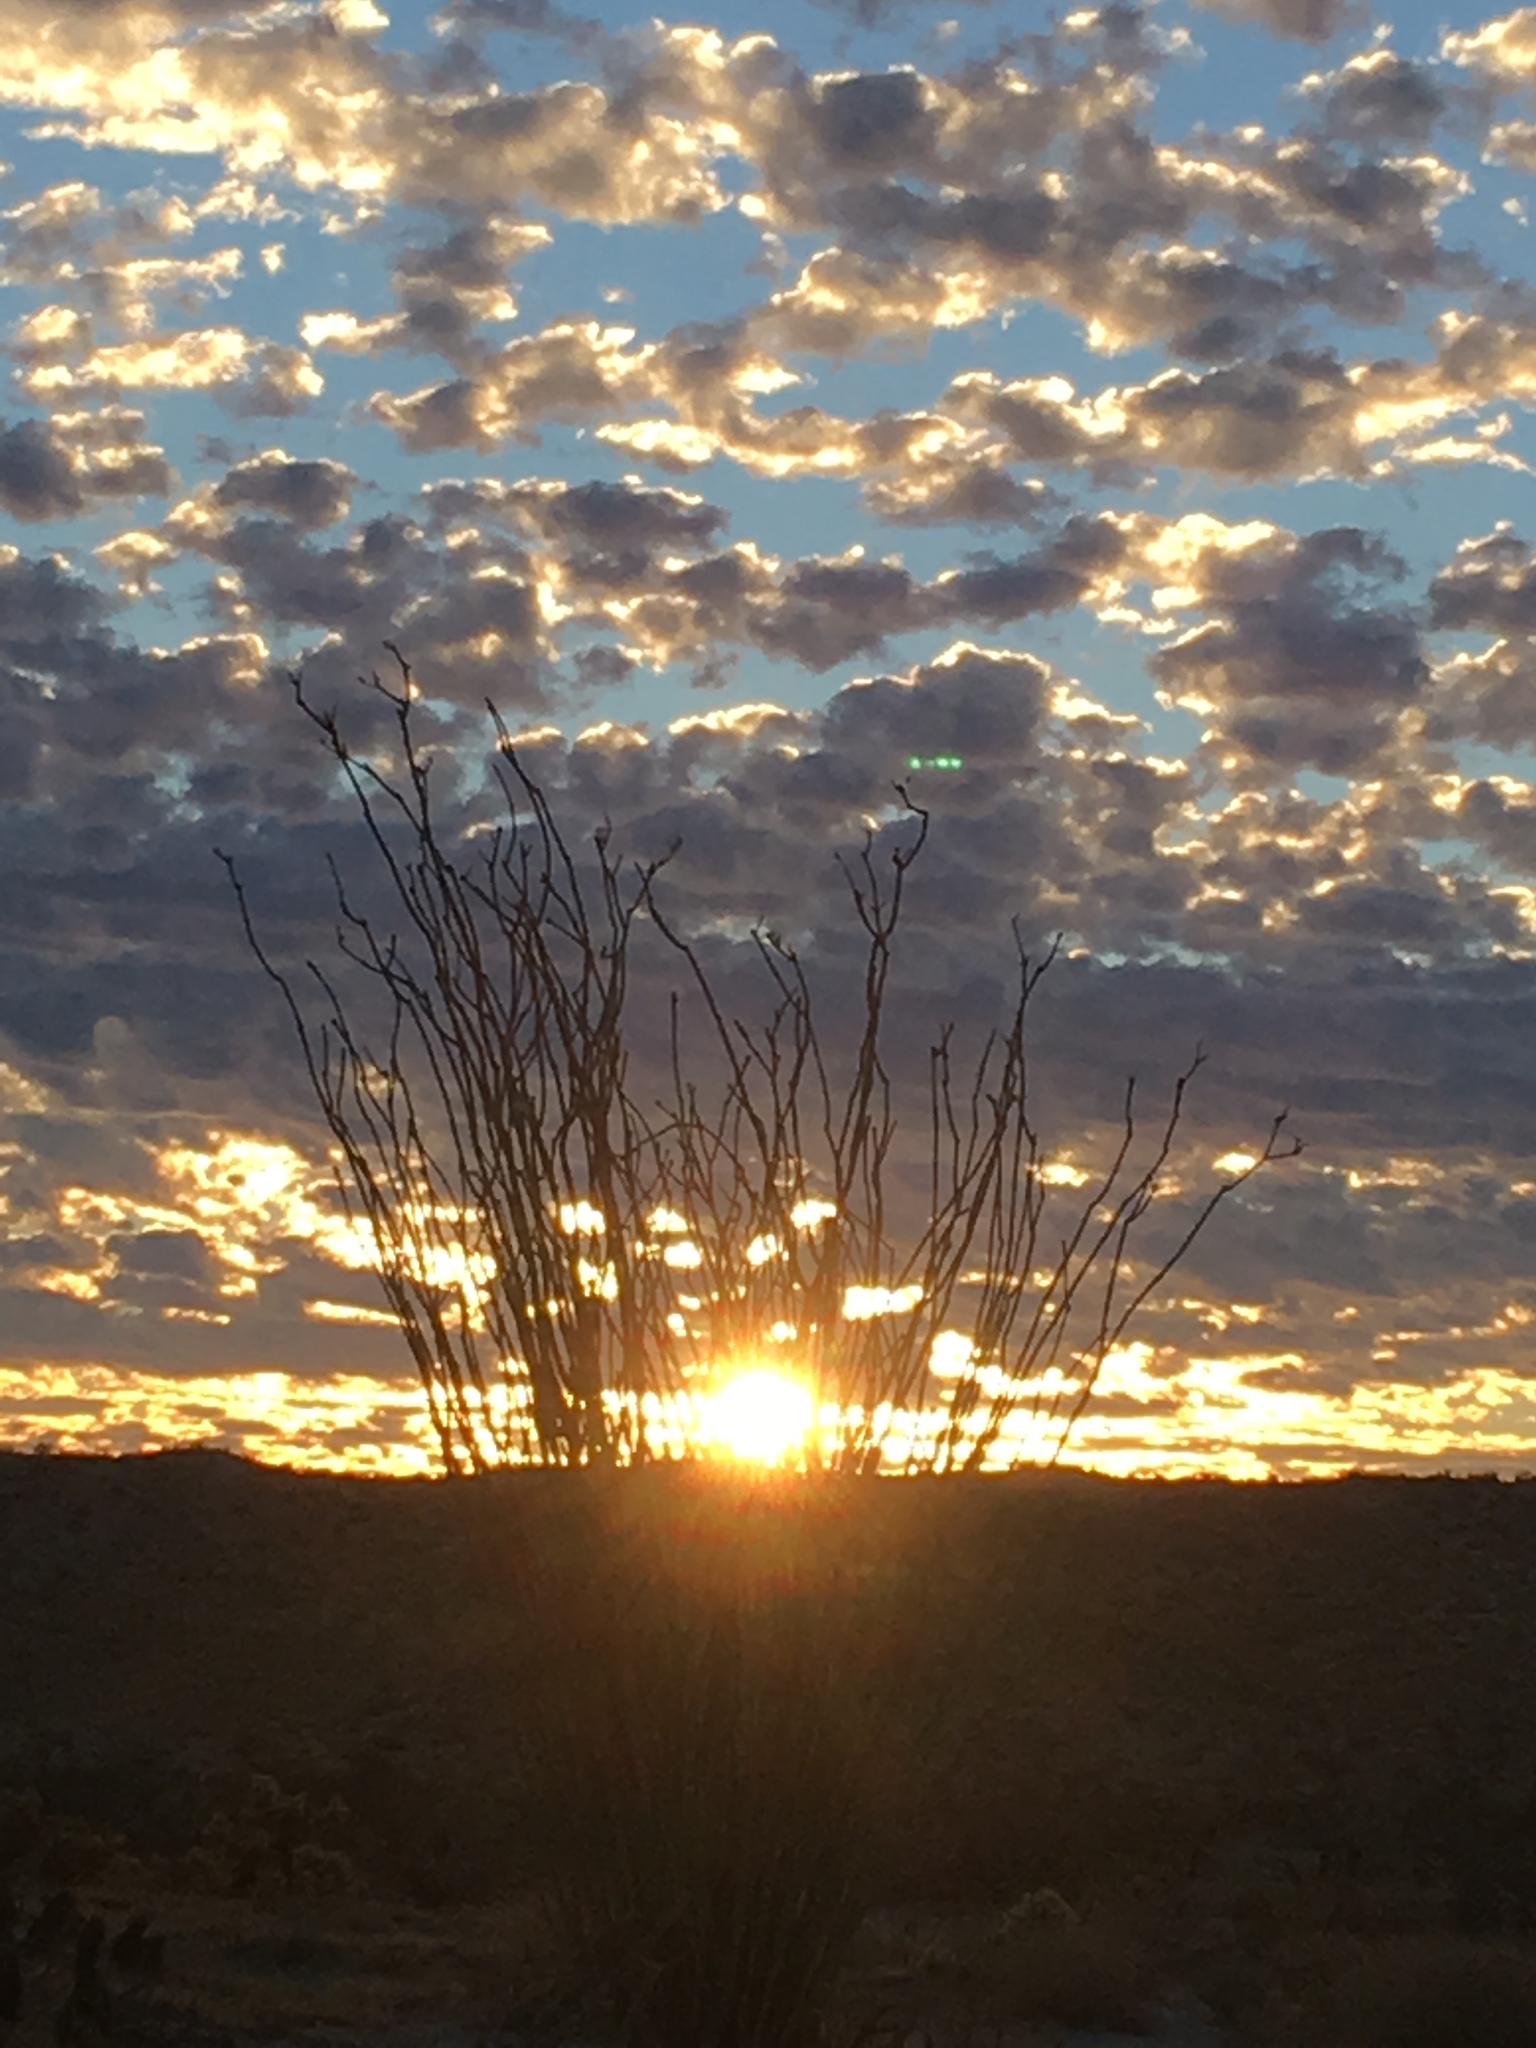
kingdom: Plantae
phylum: Tracheophyta
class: Magnoliopsida
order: Ericales
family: Fouquieriaceae
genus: Fouquieria
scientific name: Fouquieria splendens
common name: Vine-cactus
